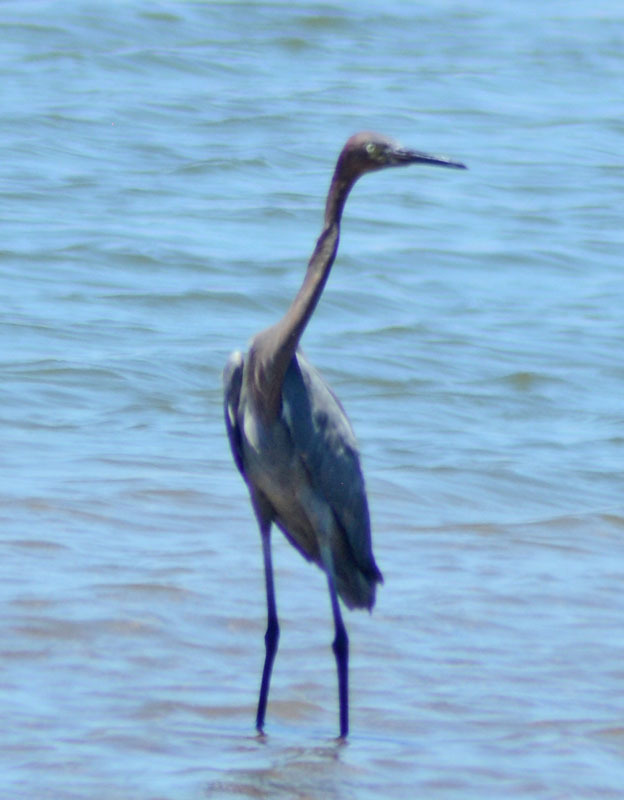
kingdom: Animalia
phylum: Chordata
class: Aves
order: Pelecaniformes
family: Ardeidae
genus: Egretta
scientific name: Egretta rufescens
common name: Reddish egret
